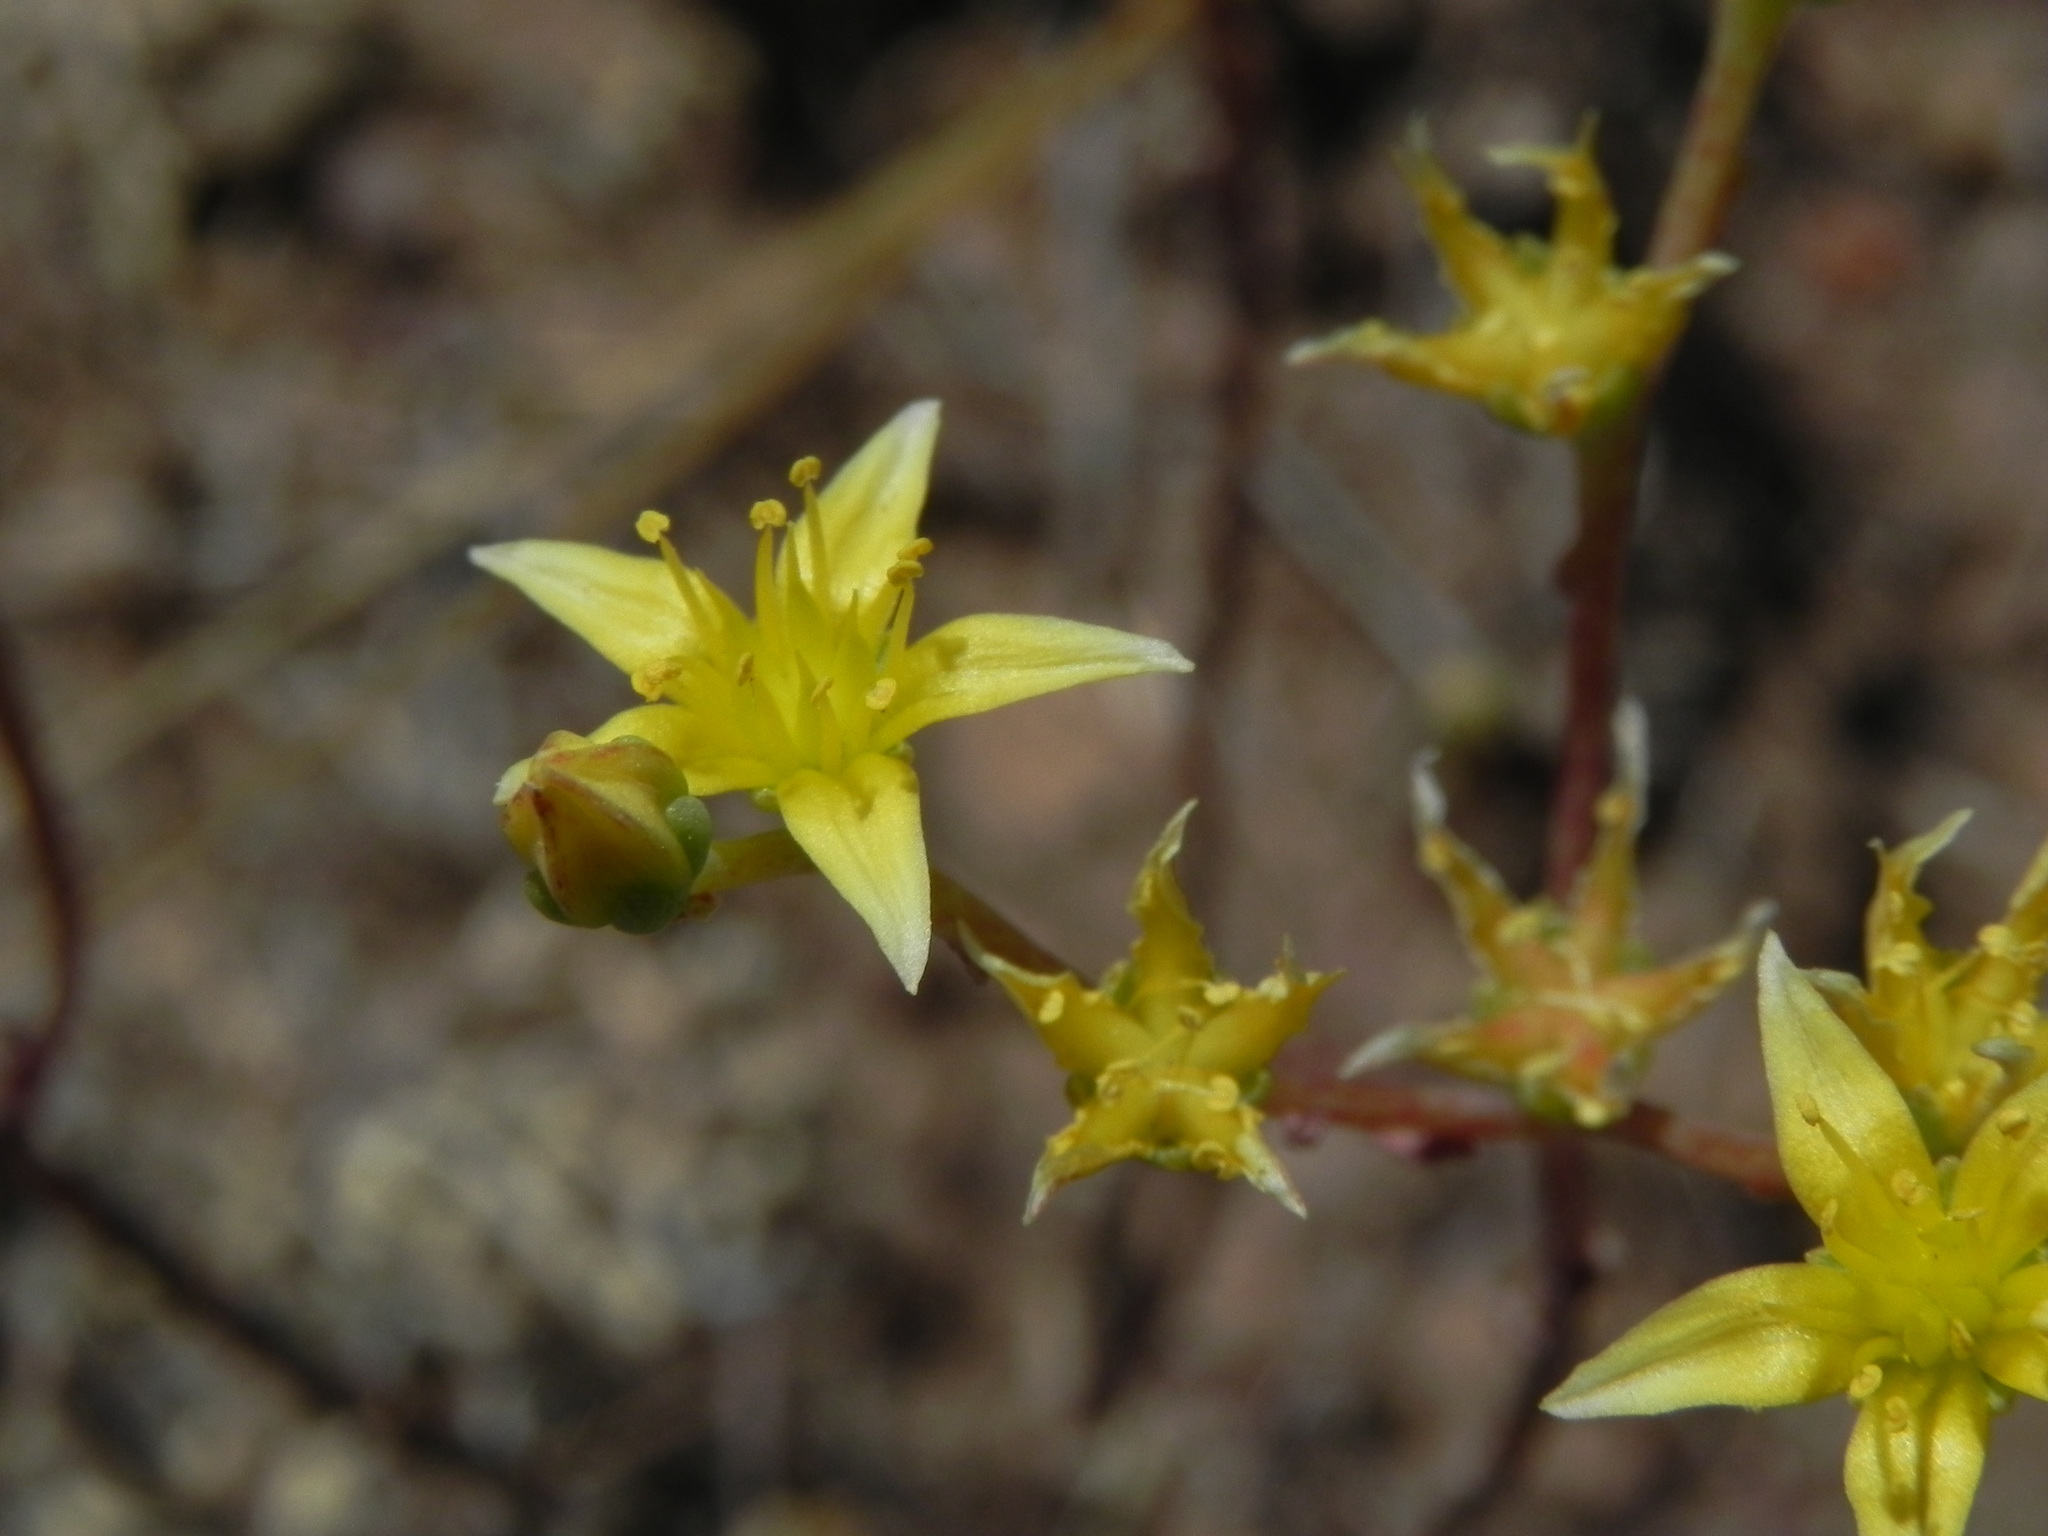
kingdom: Plantae
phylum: Tracheophyta
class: Magnoliopsida
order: Saxifragales
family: Crassulaceae
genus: Dudleya
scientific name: Dudleya variegata
